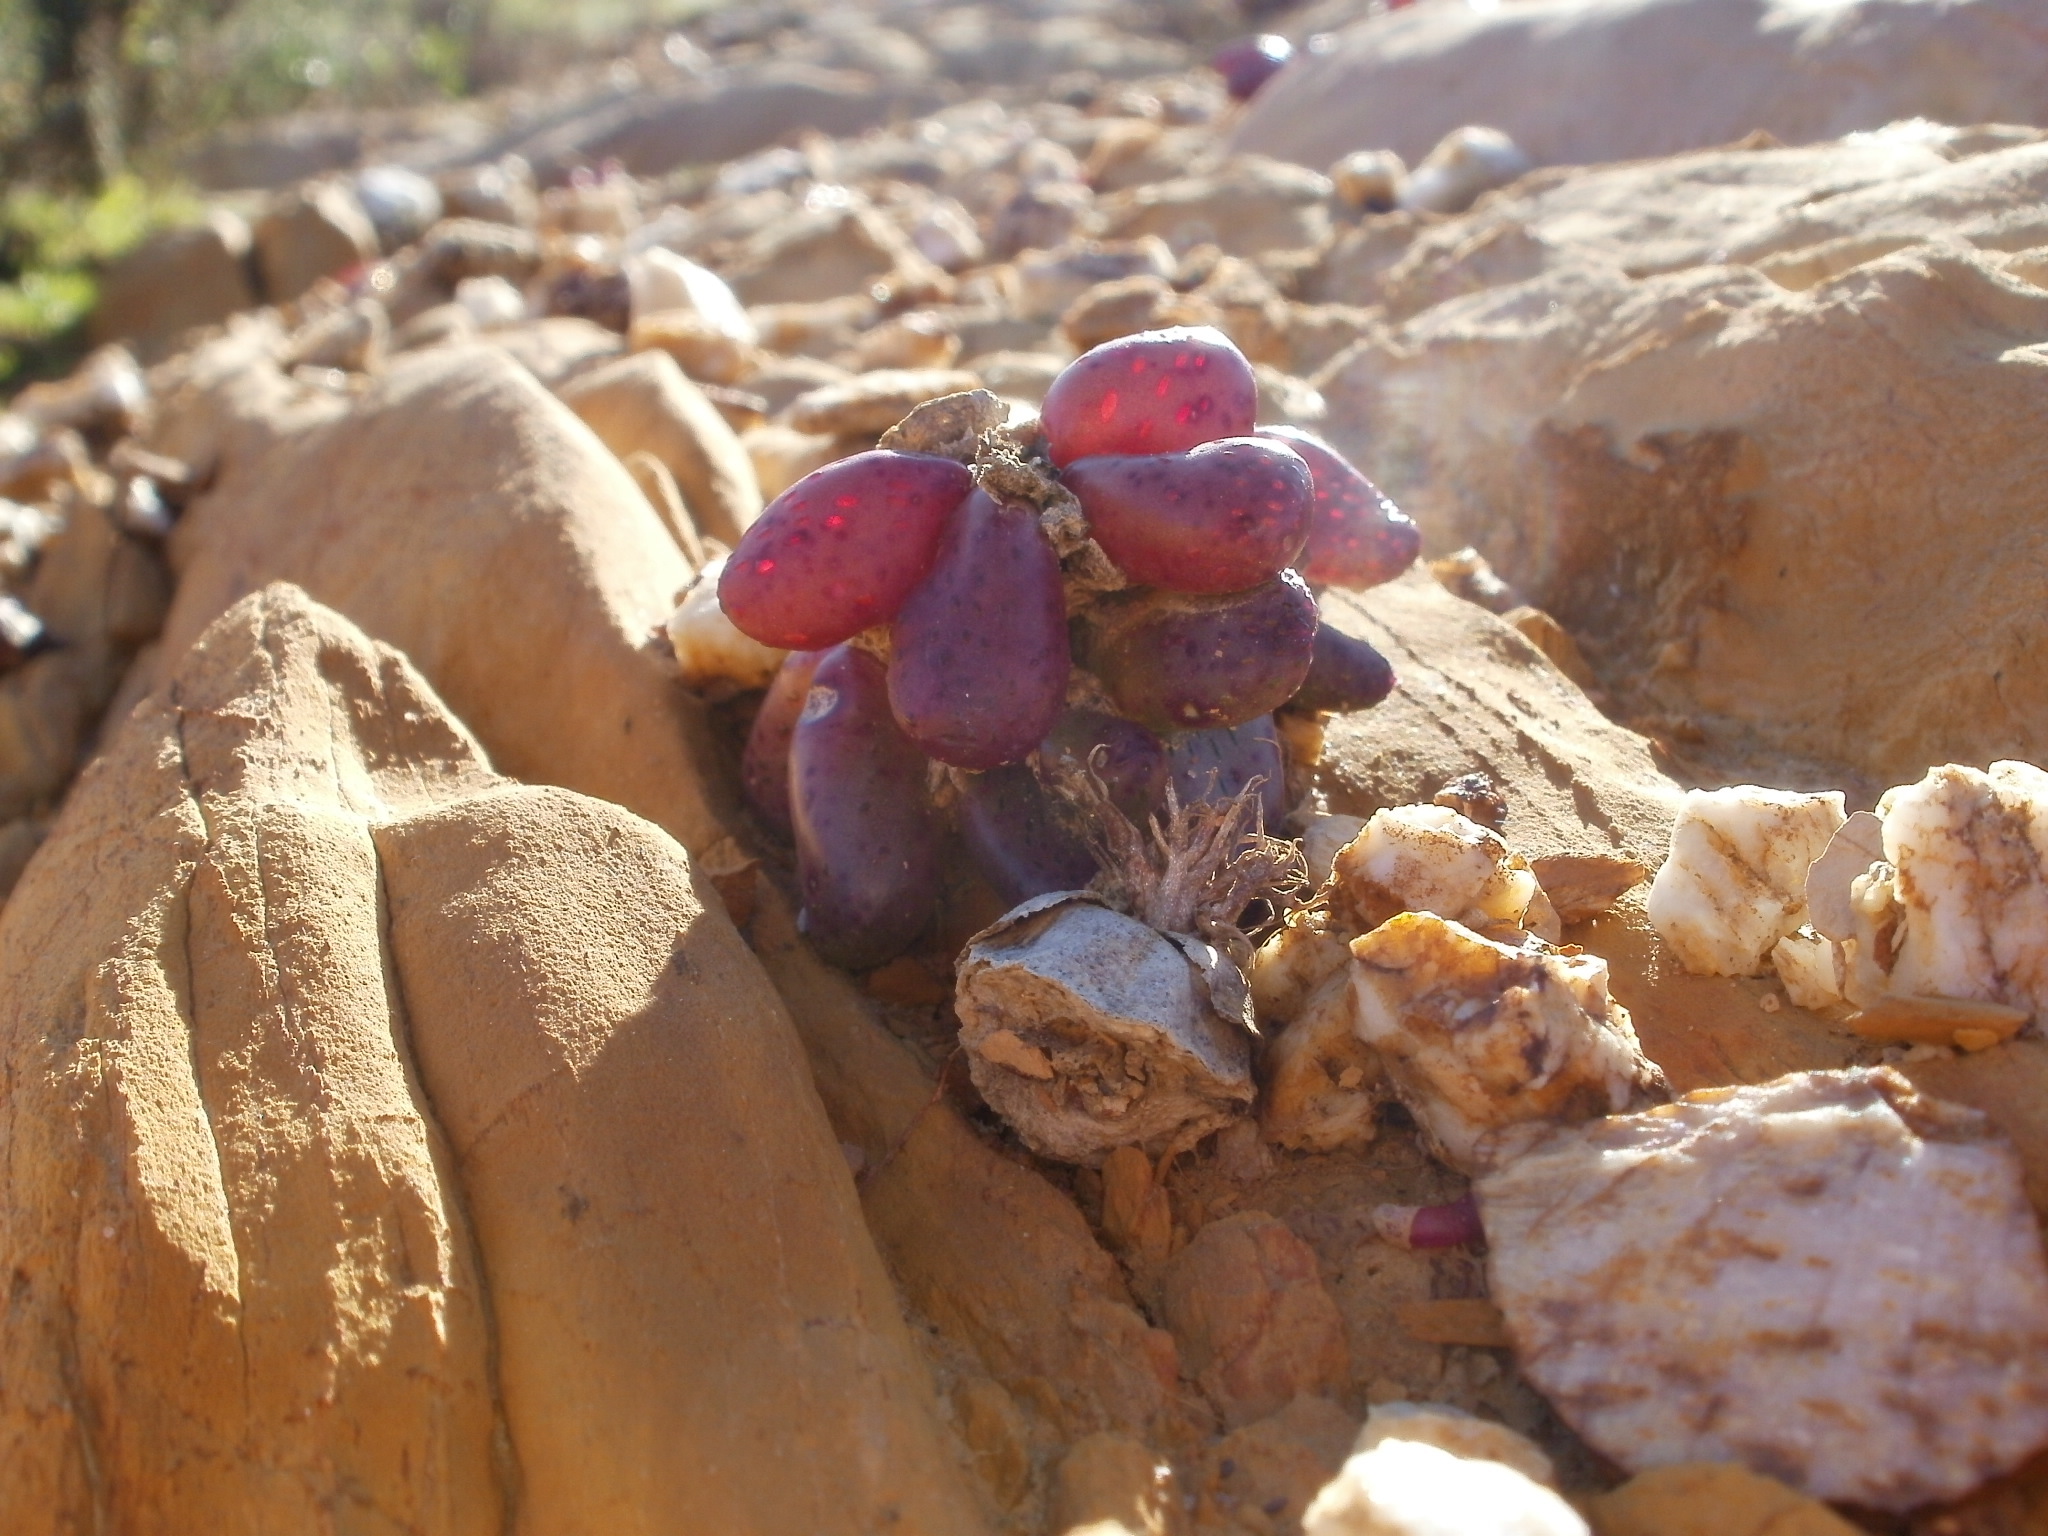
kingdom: Plantae
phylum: Tracheophyta
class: Magnoliopsida
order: Caryophyllales
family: Aizoaceae
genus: Diplosoma
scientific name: Diplosoma retroversum
